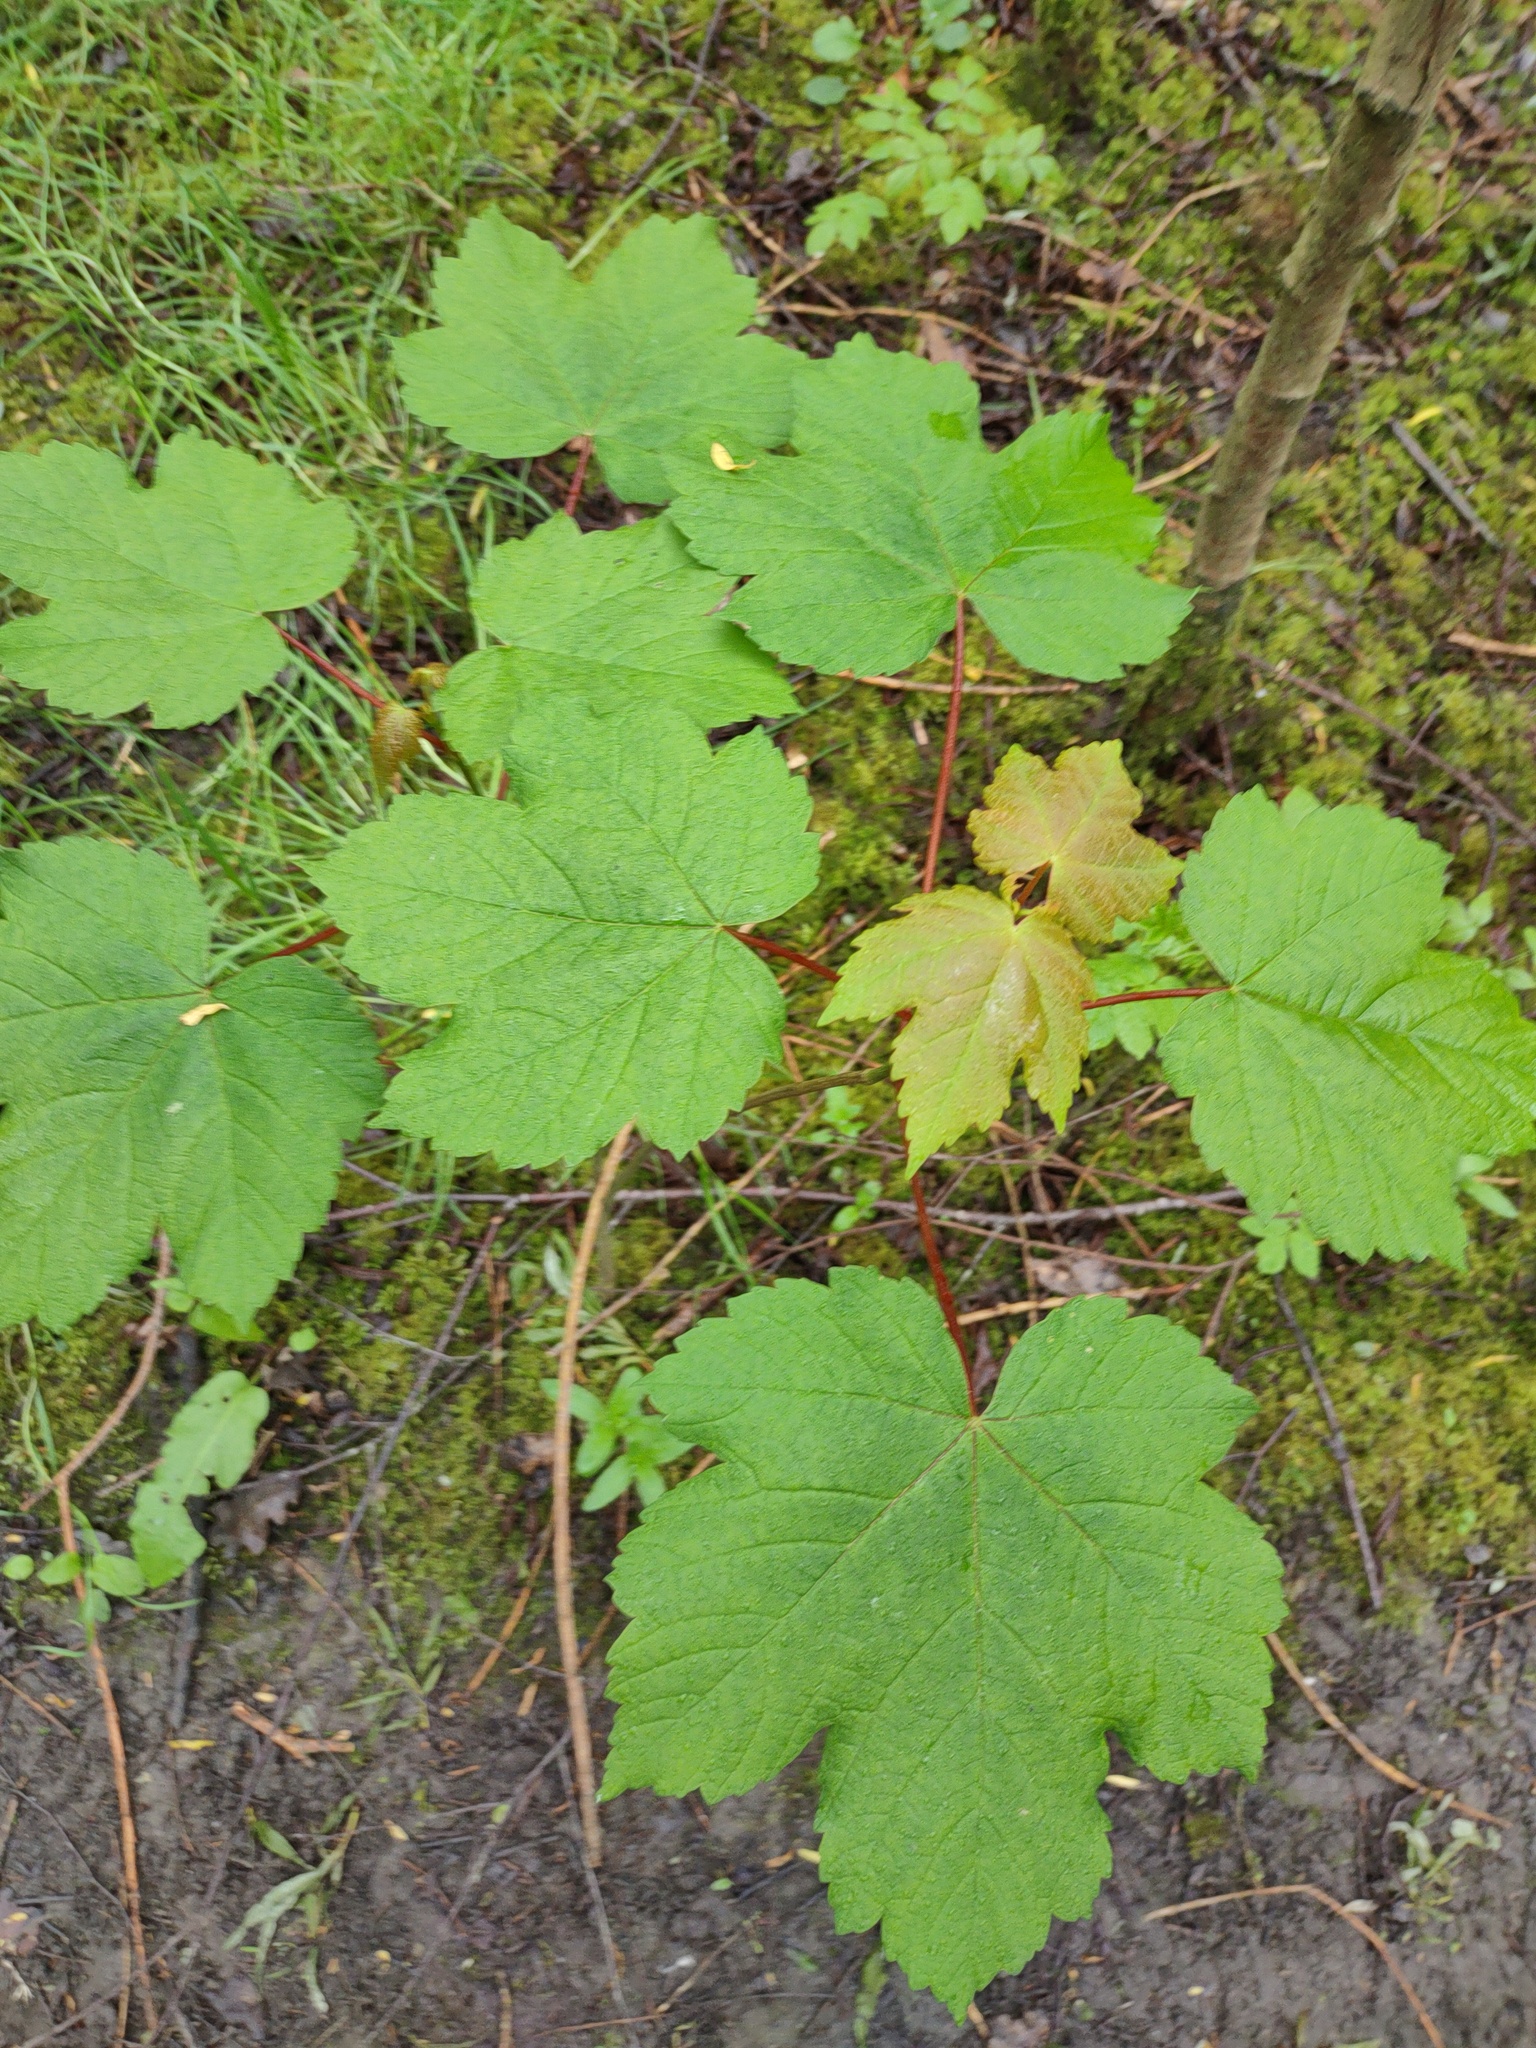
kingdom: Plantae
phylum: Tracheophyta
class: Magnoliopsida
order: Sapindales
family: Sapindaceae
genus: Acer
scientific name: Acer pseudoplatanus
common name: Sycamore
